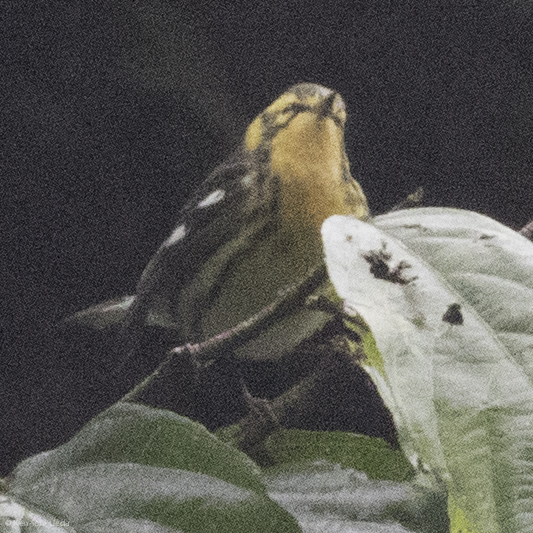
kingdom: Animalia
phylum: Chordata
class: Aves
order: Passeriformes
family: Parulidae
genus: Setophaga
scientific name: Setophaga fusca
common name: Blackburnian warbler
